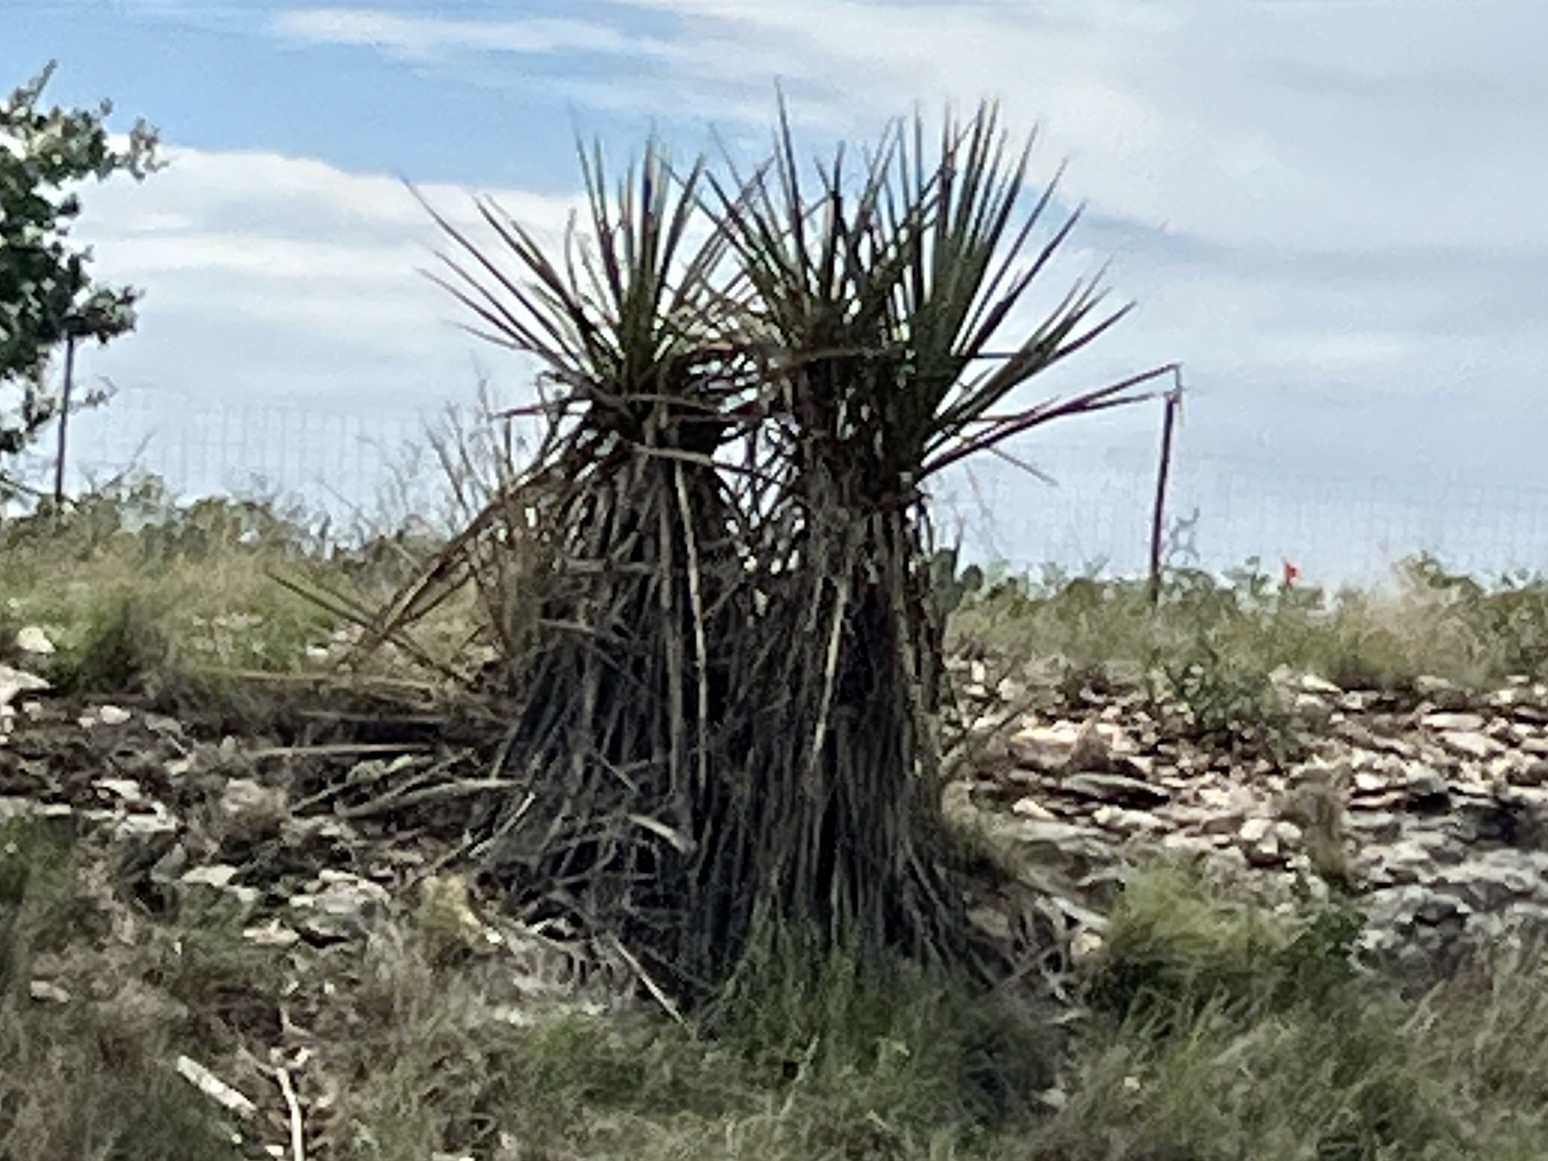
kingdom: Plantae
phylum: Tracheophyta
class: Liliopsida
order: Asparagales
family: Asparagaceae
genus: Yucca
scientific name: Yucca treculiana
